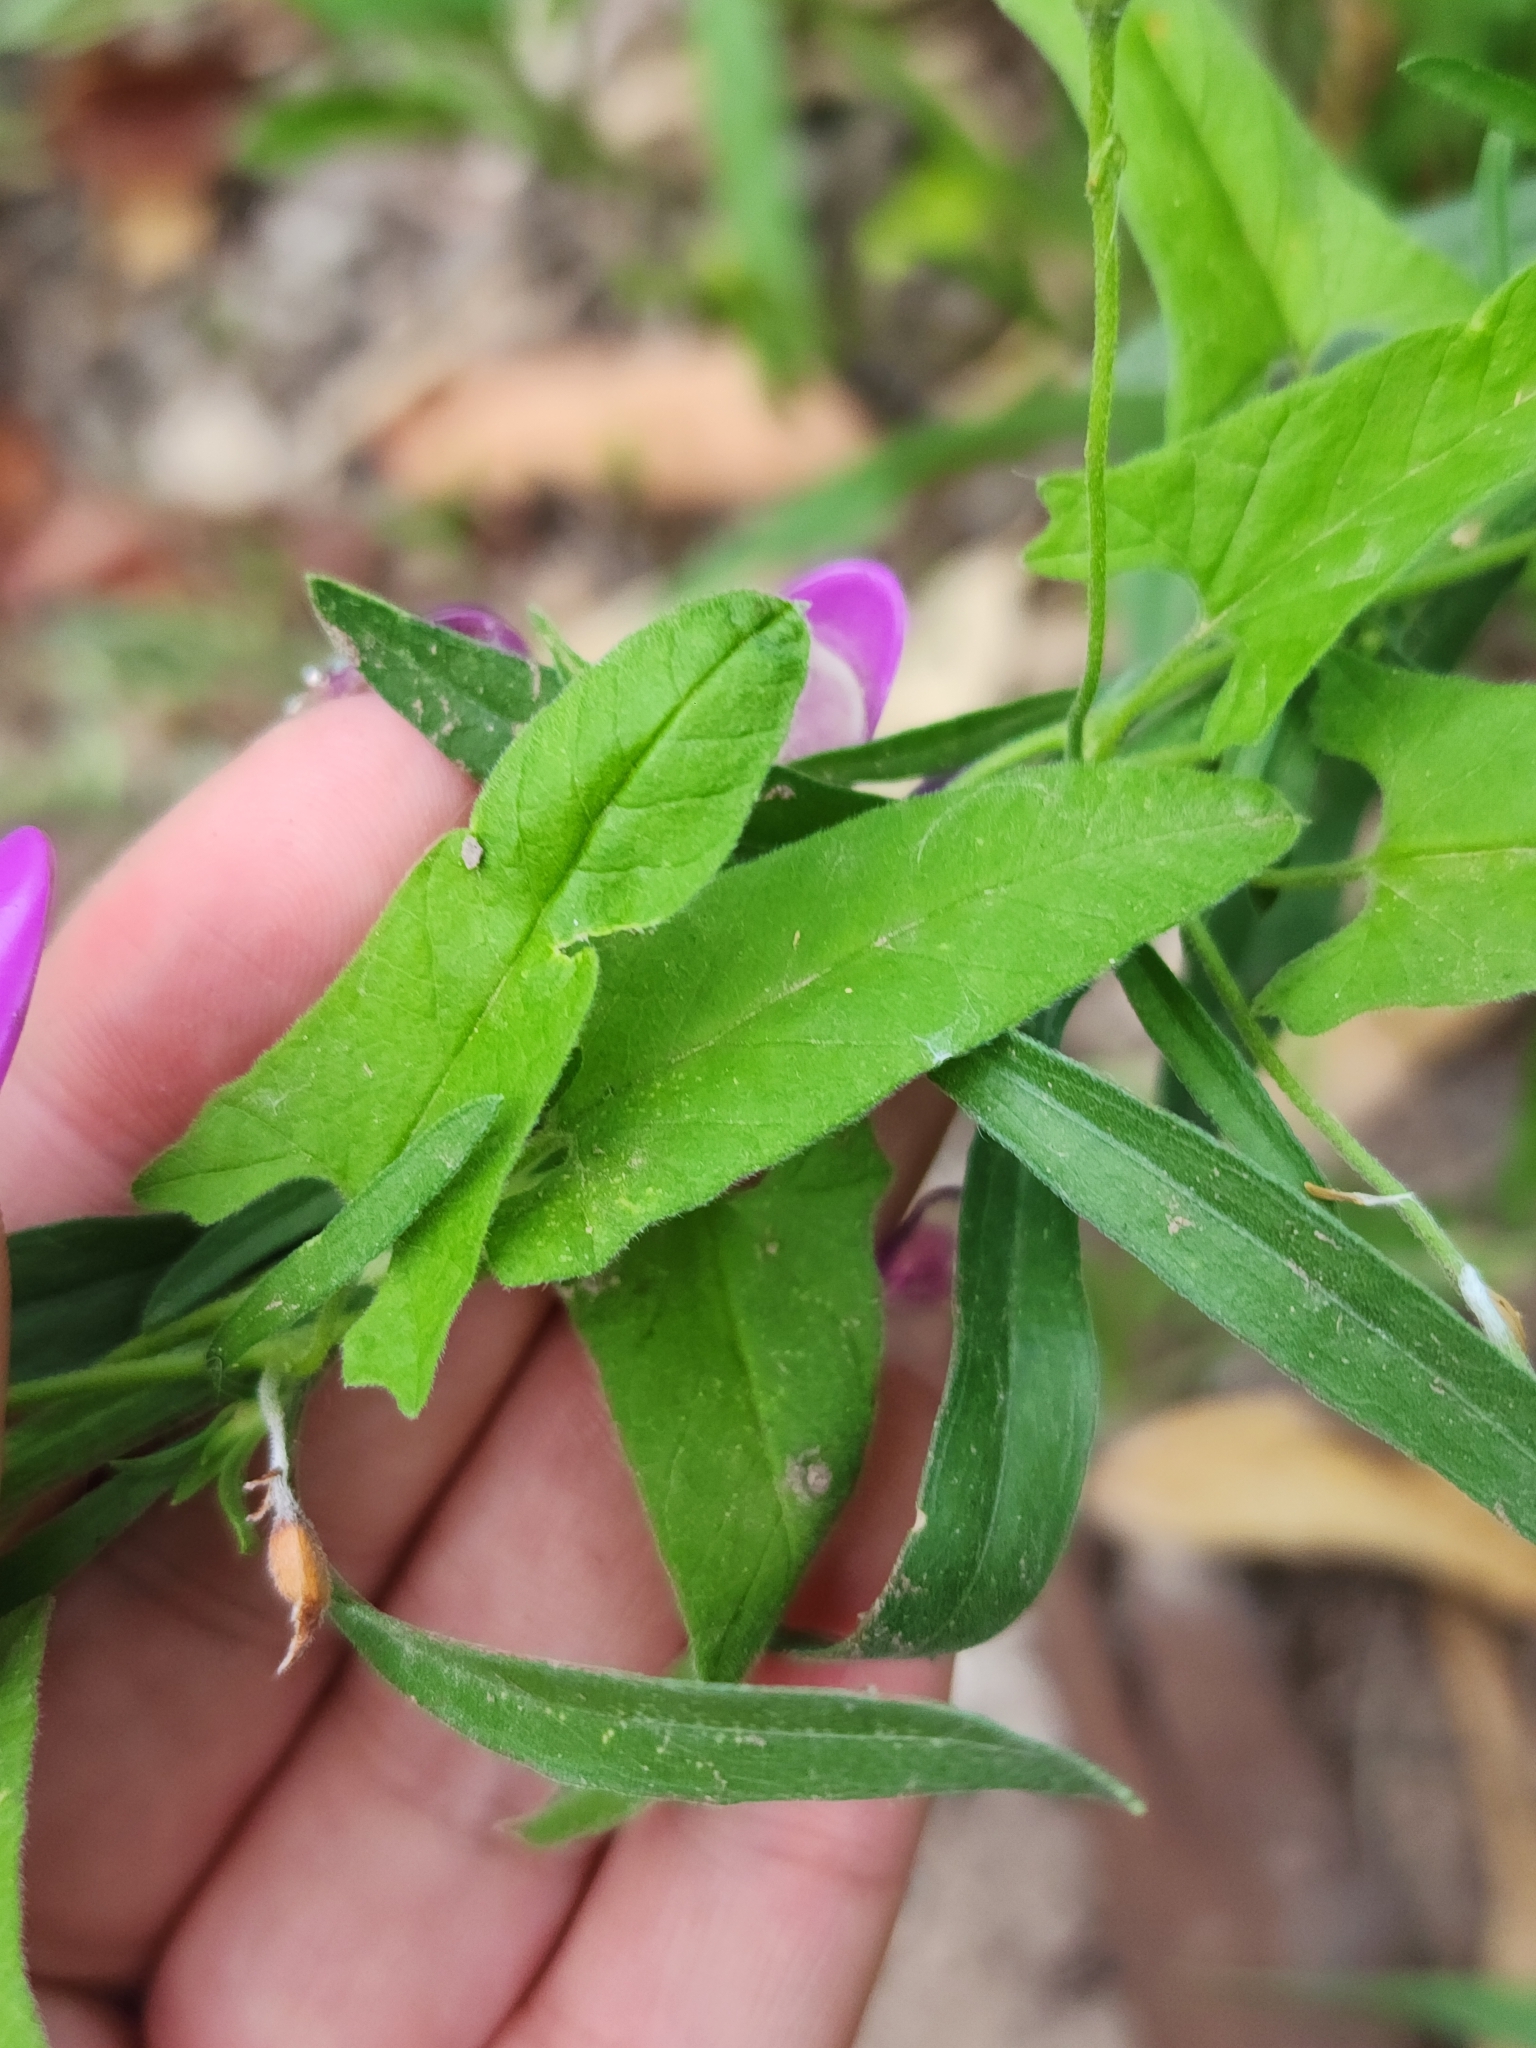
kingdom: Plantae
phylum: Tracheophyta
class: Magnoliopsida
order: Solanales
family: Convolvulaceae
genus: Convolvulus
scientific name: Convolvulus bonariensis
